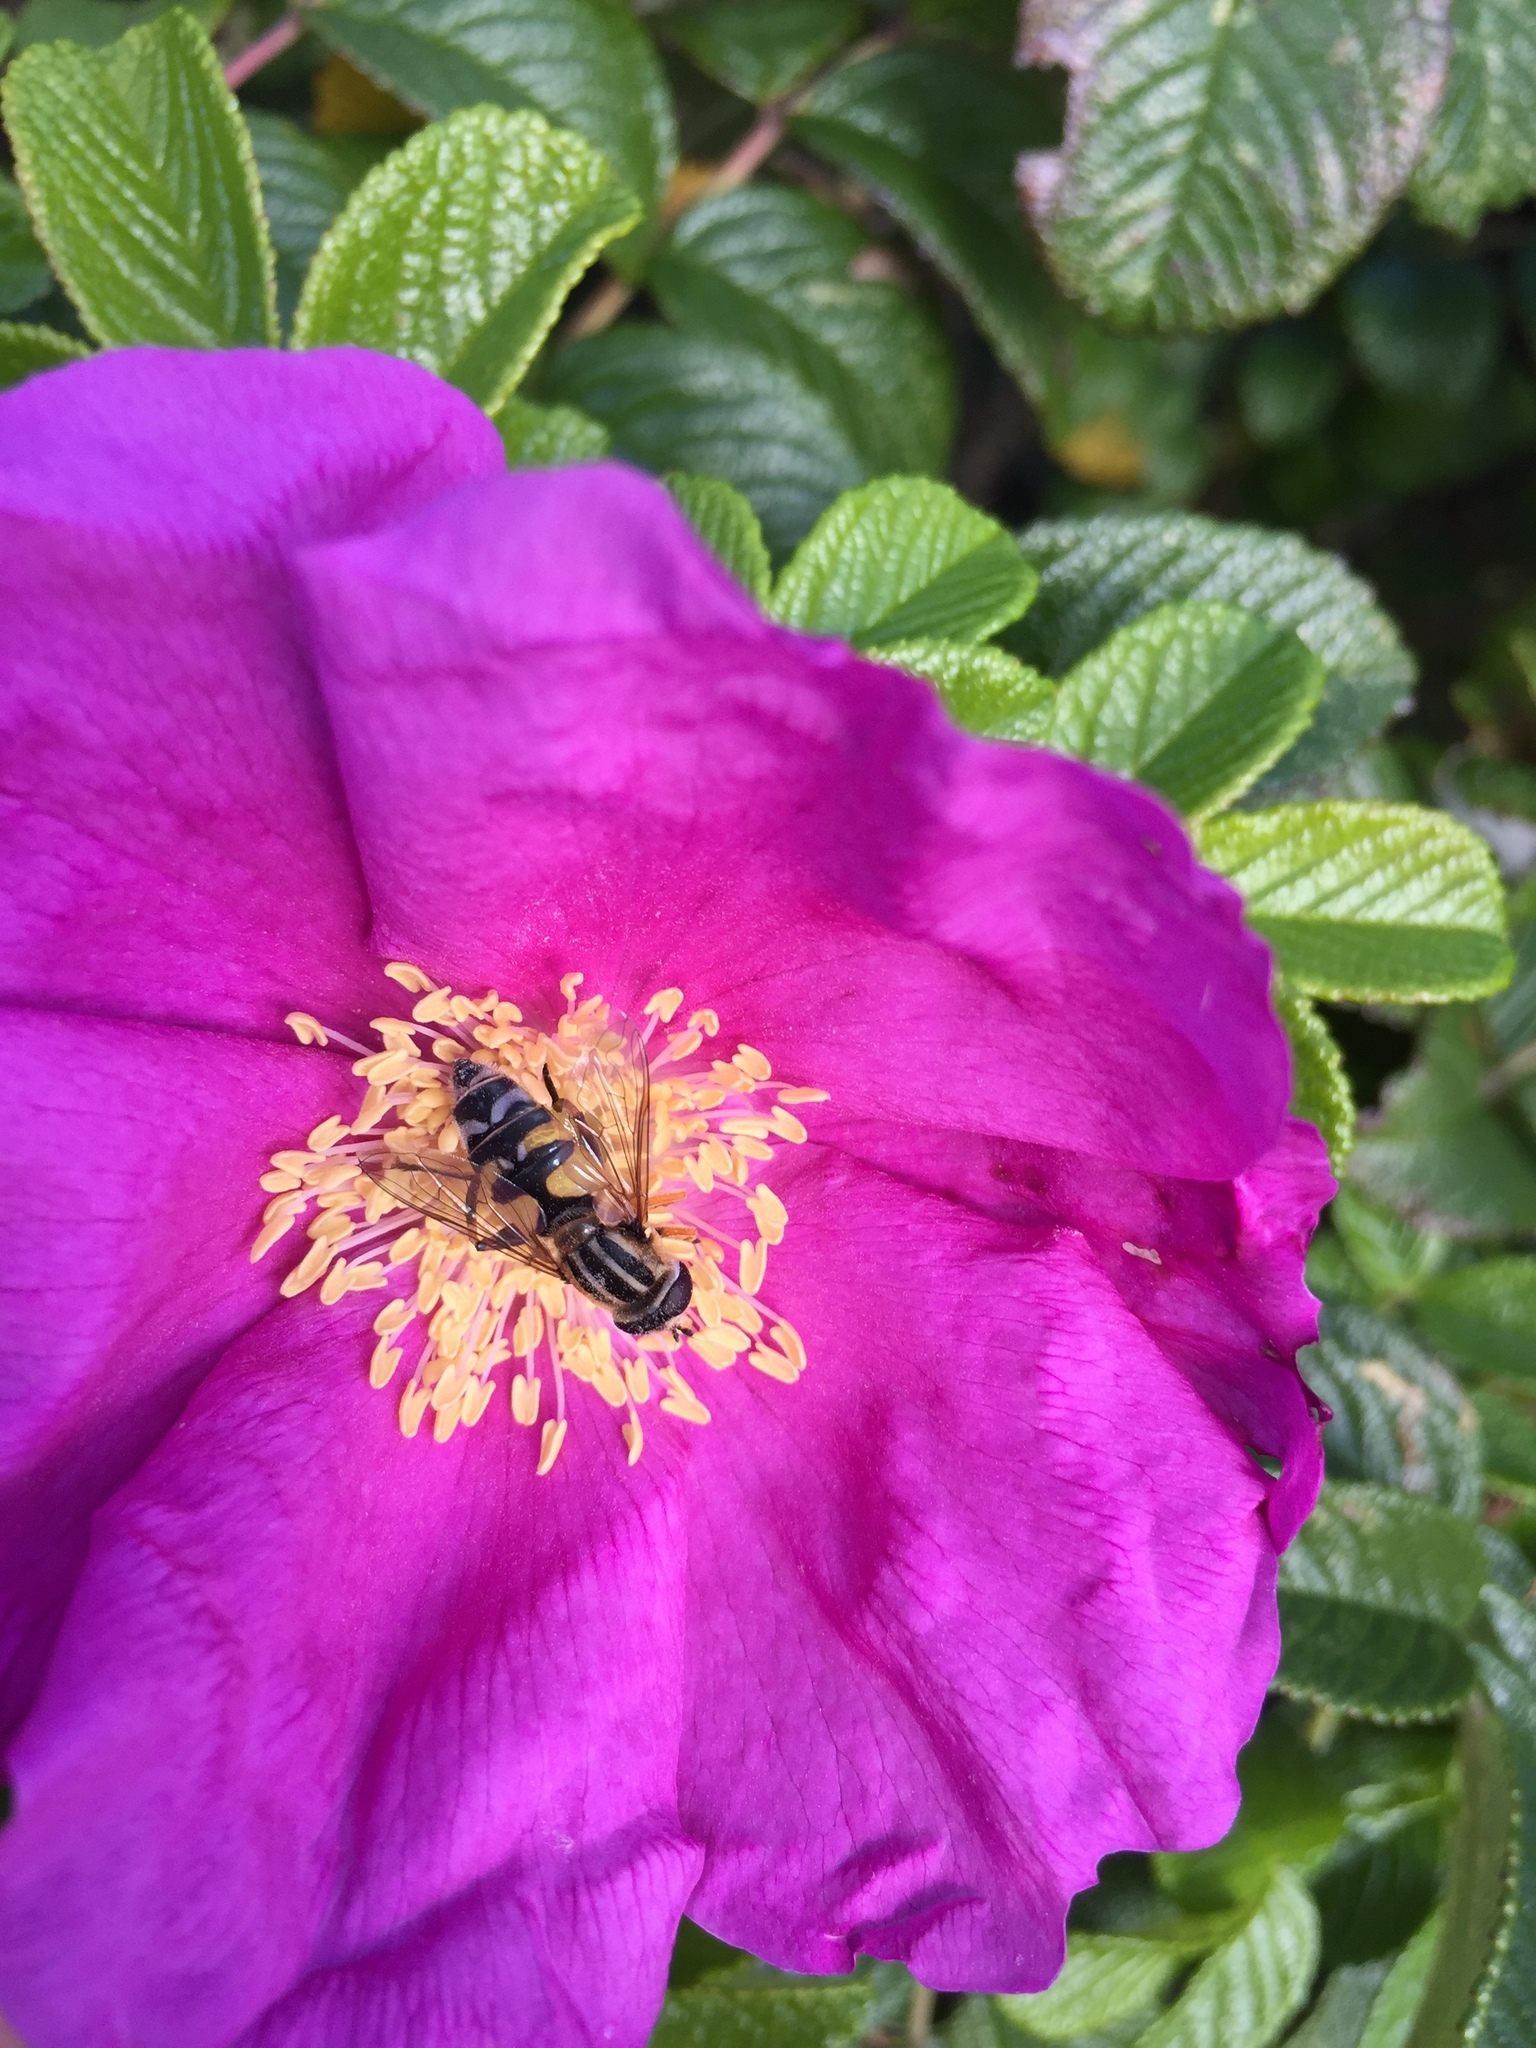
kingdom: Animalia
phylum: Arthropoda
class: Insecta
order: Diptera
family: Syrphidae
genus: Helophilus
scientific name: Helophilus trivittatus
